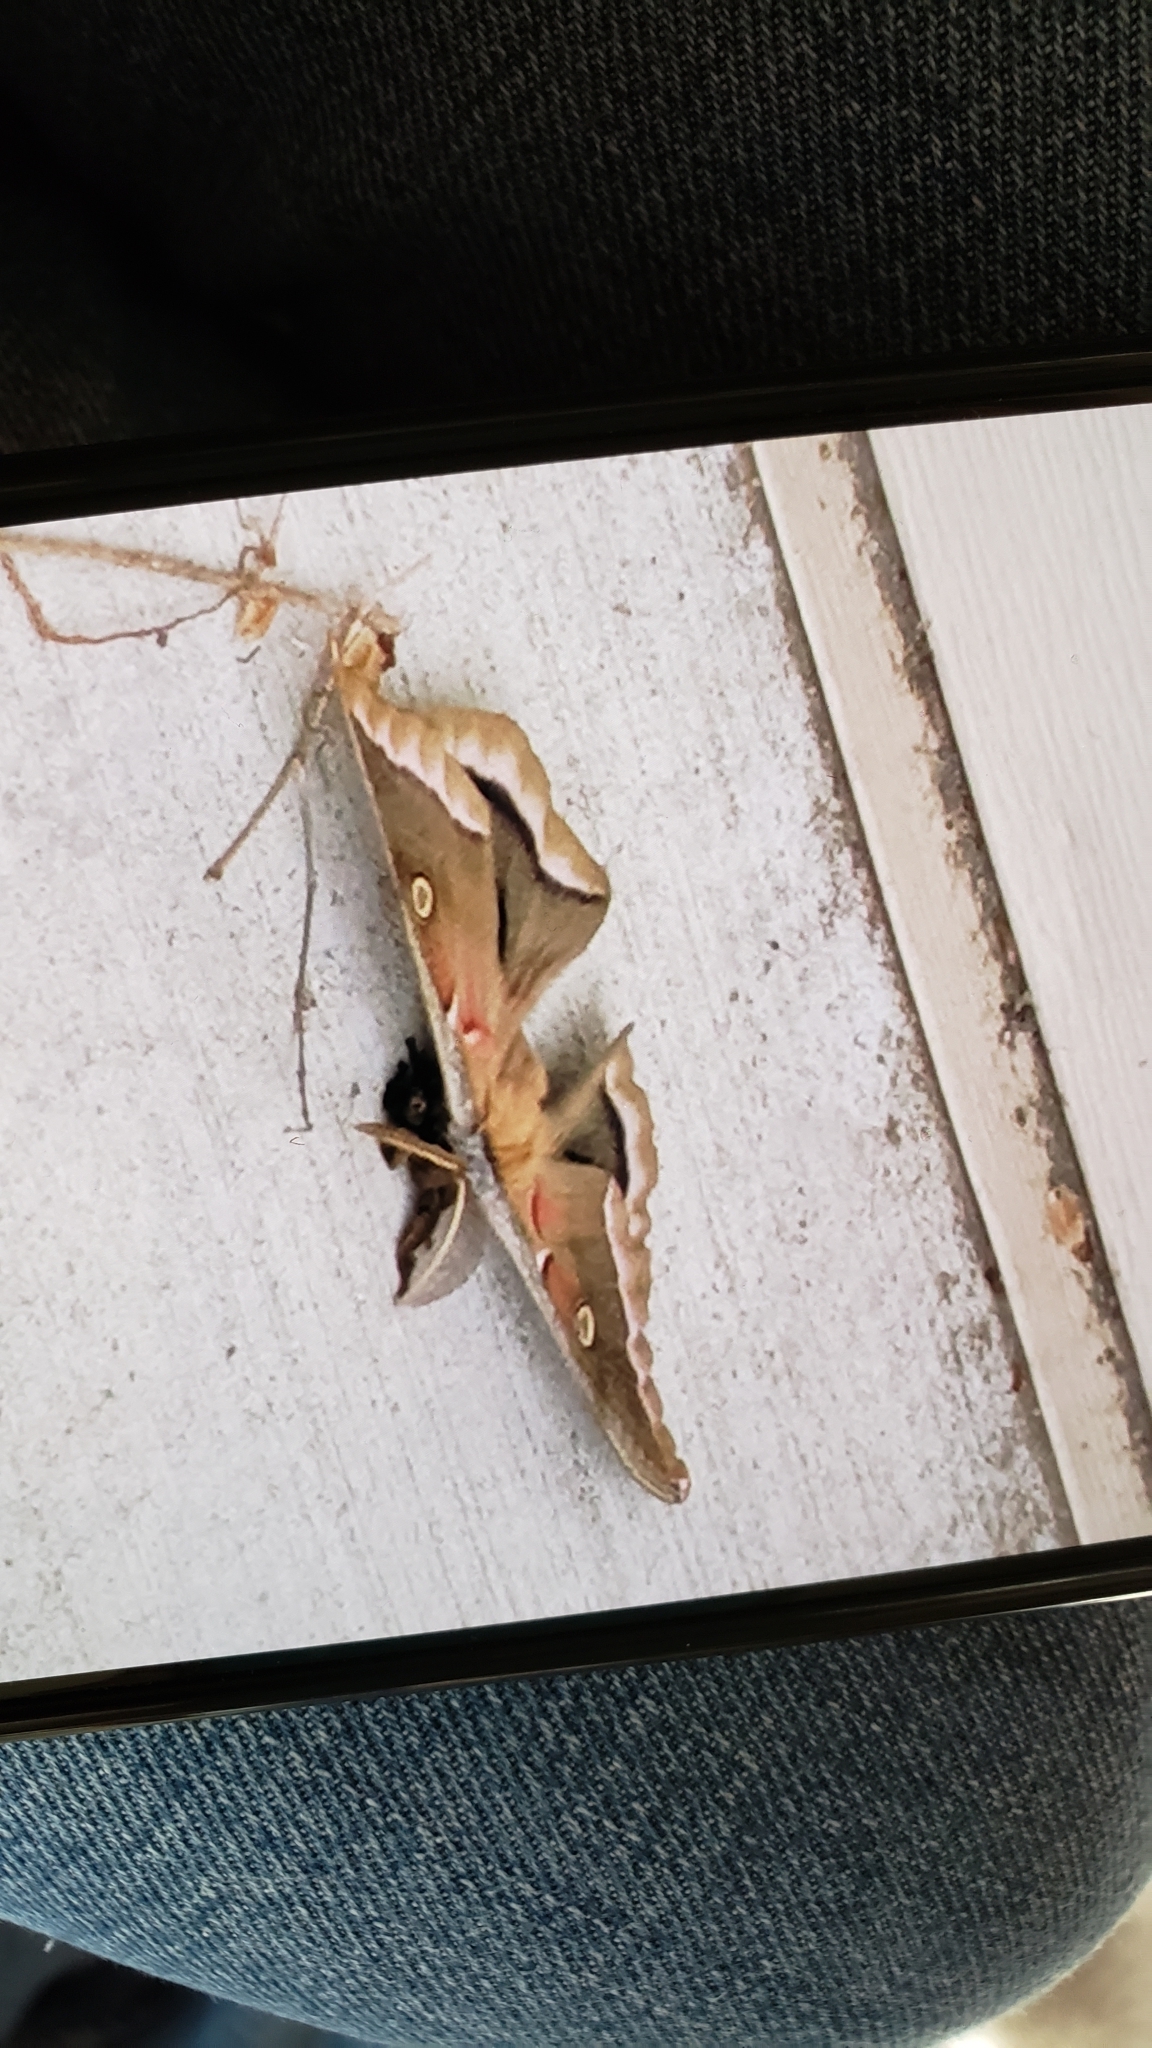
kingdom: Animalia
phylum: Arthropoda
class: Insecta
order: Lepidoptera
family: Saturniidae
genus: Antheraea
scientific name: Antheraea polyphemus
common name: Polyphemus moth
